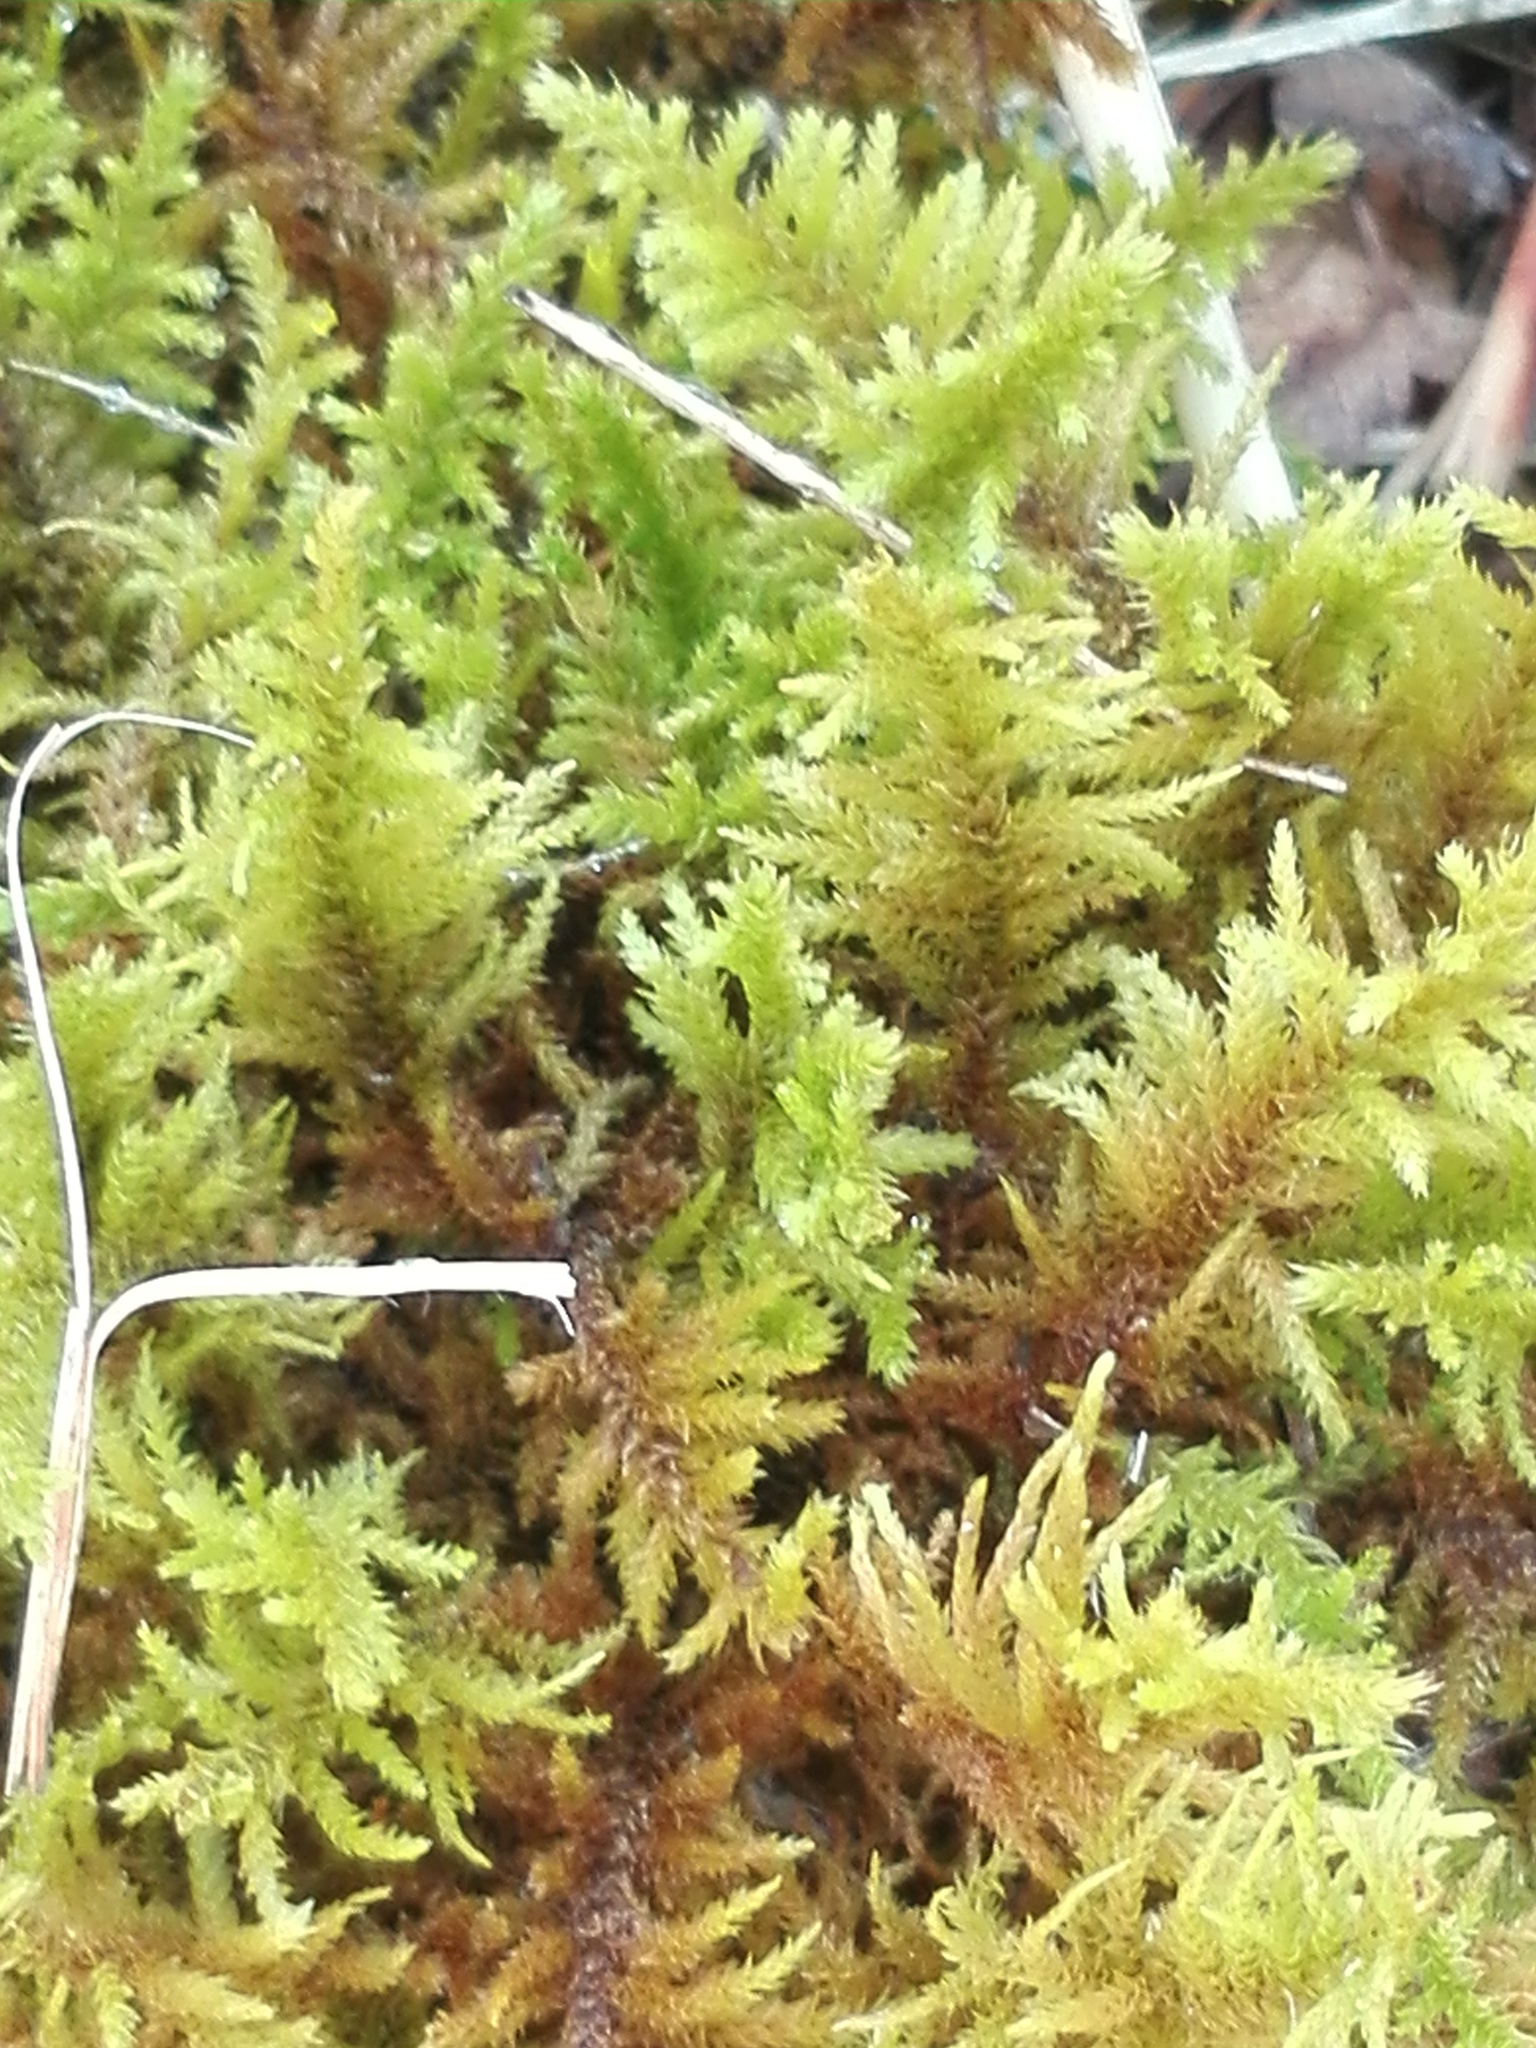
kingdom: Plantae
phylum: Bryophyta
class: Bryopsida
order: Hypnales
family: Thuidiaceae
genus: Abietinella
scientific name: Abietinella abietina
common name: Wiry fern moss
